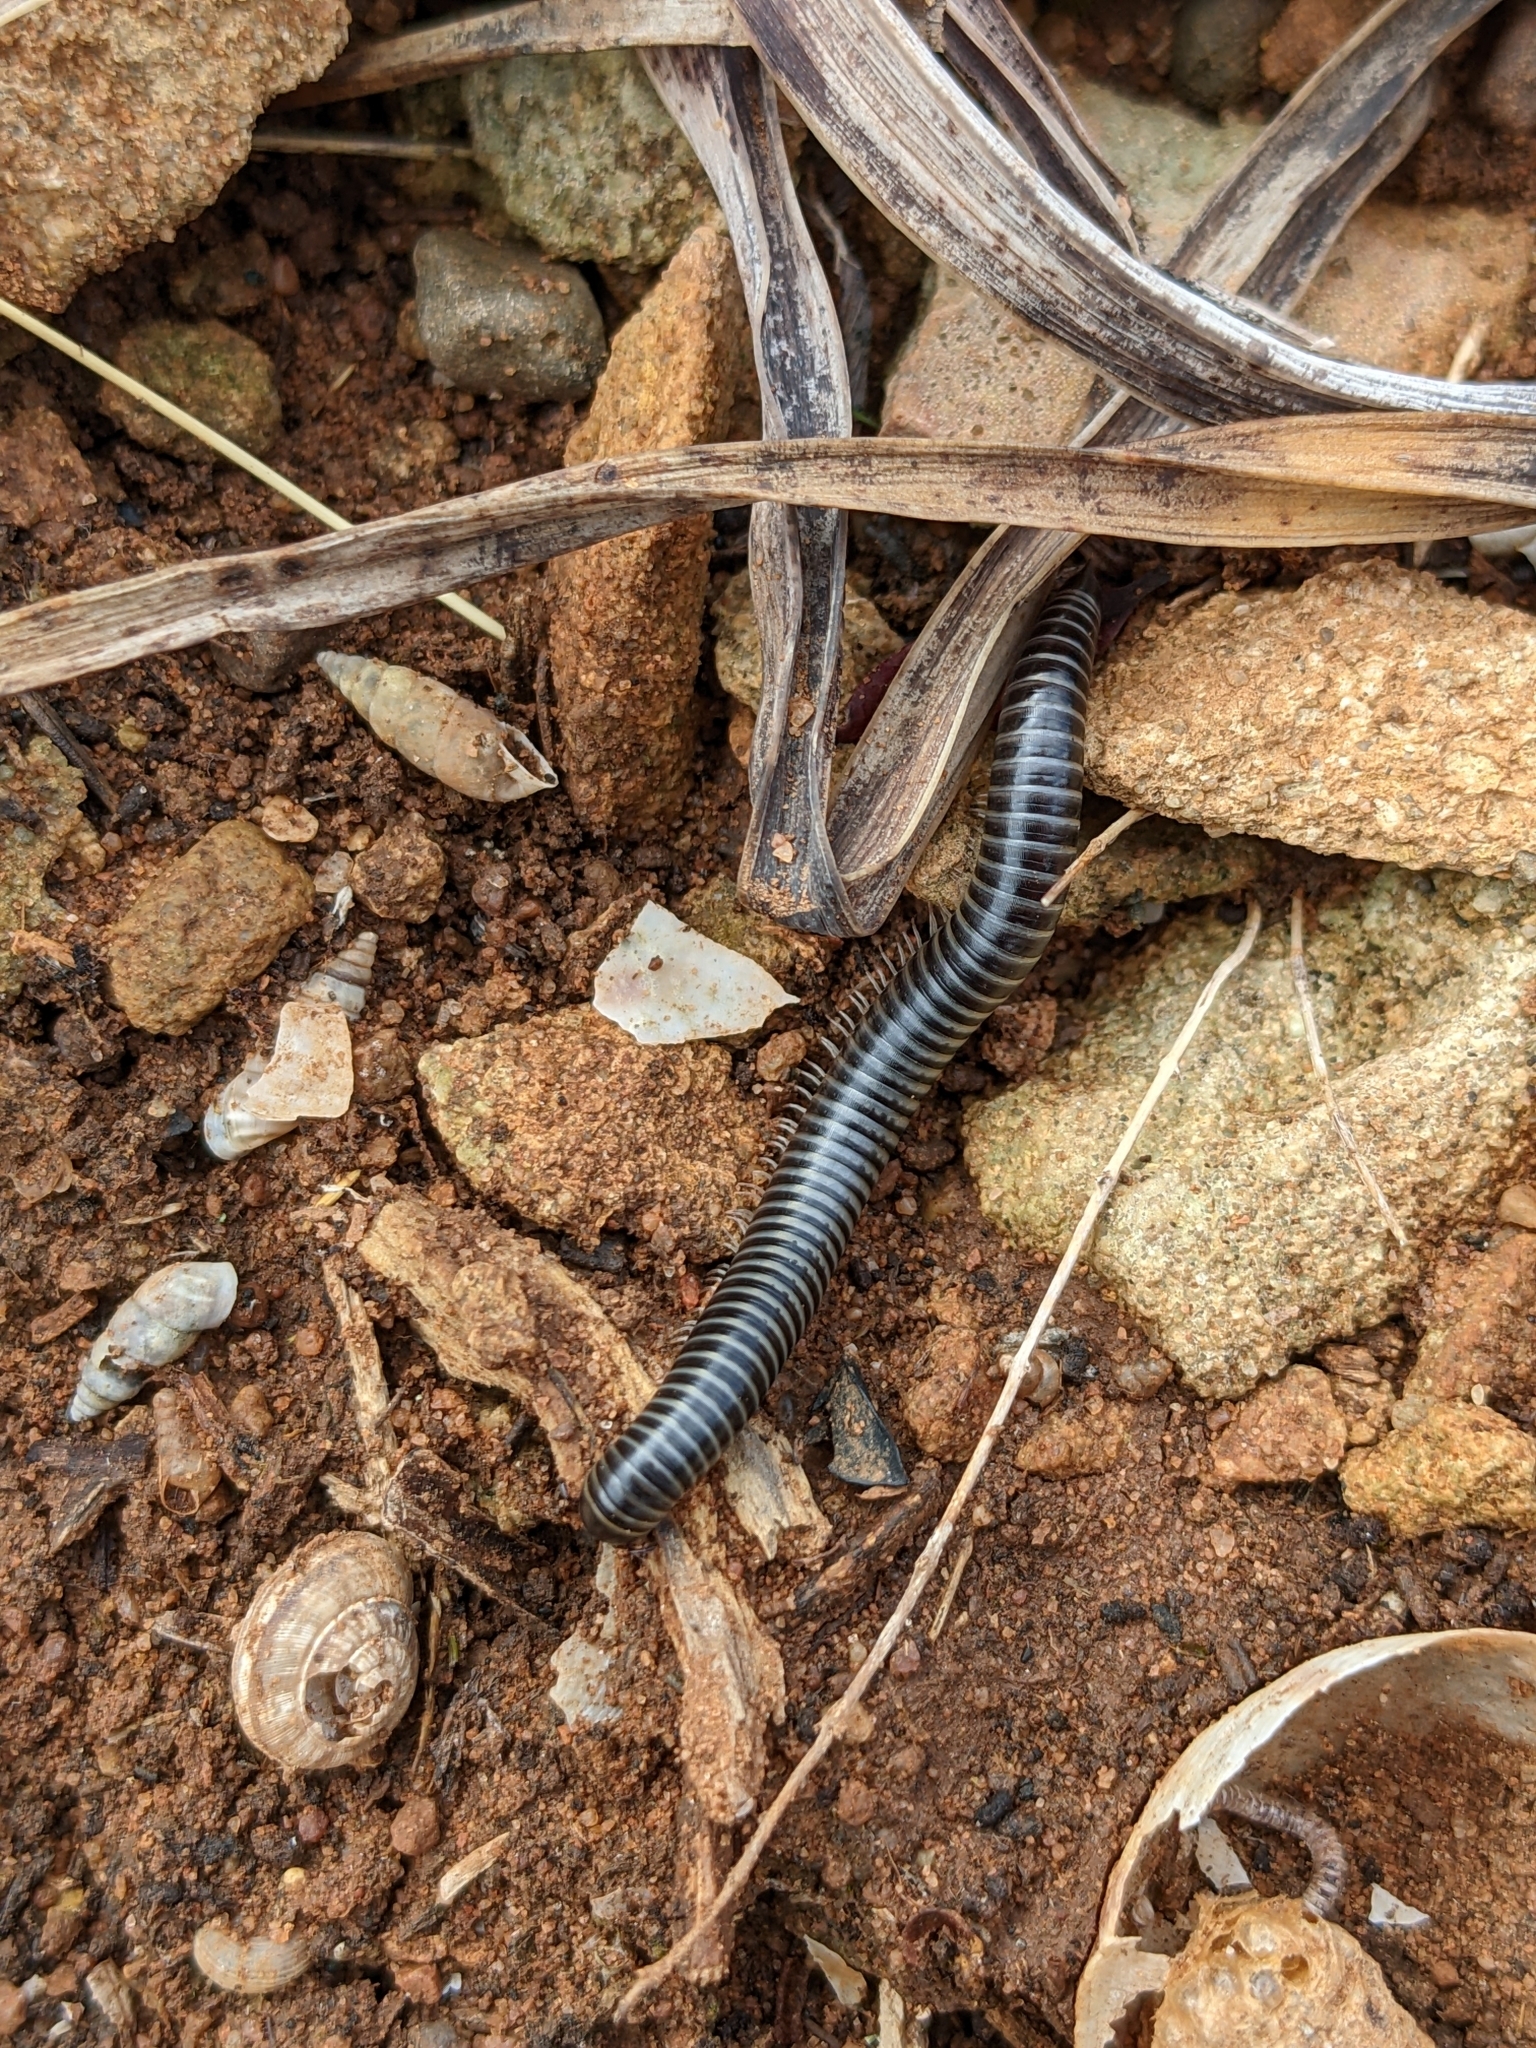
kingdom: Animalia
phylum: Arthropoda
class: Diplopoda
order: Julida
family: Julidae
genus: Ommatoiulus
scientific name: Ommatoiulus sabulosus
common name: Striped millipede
